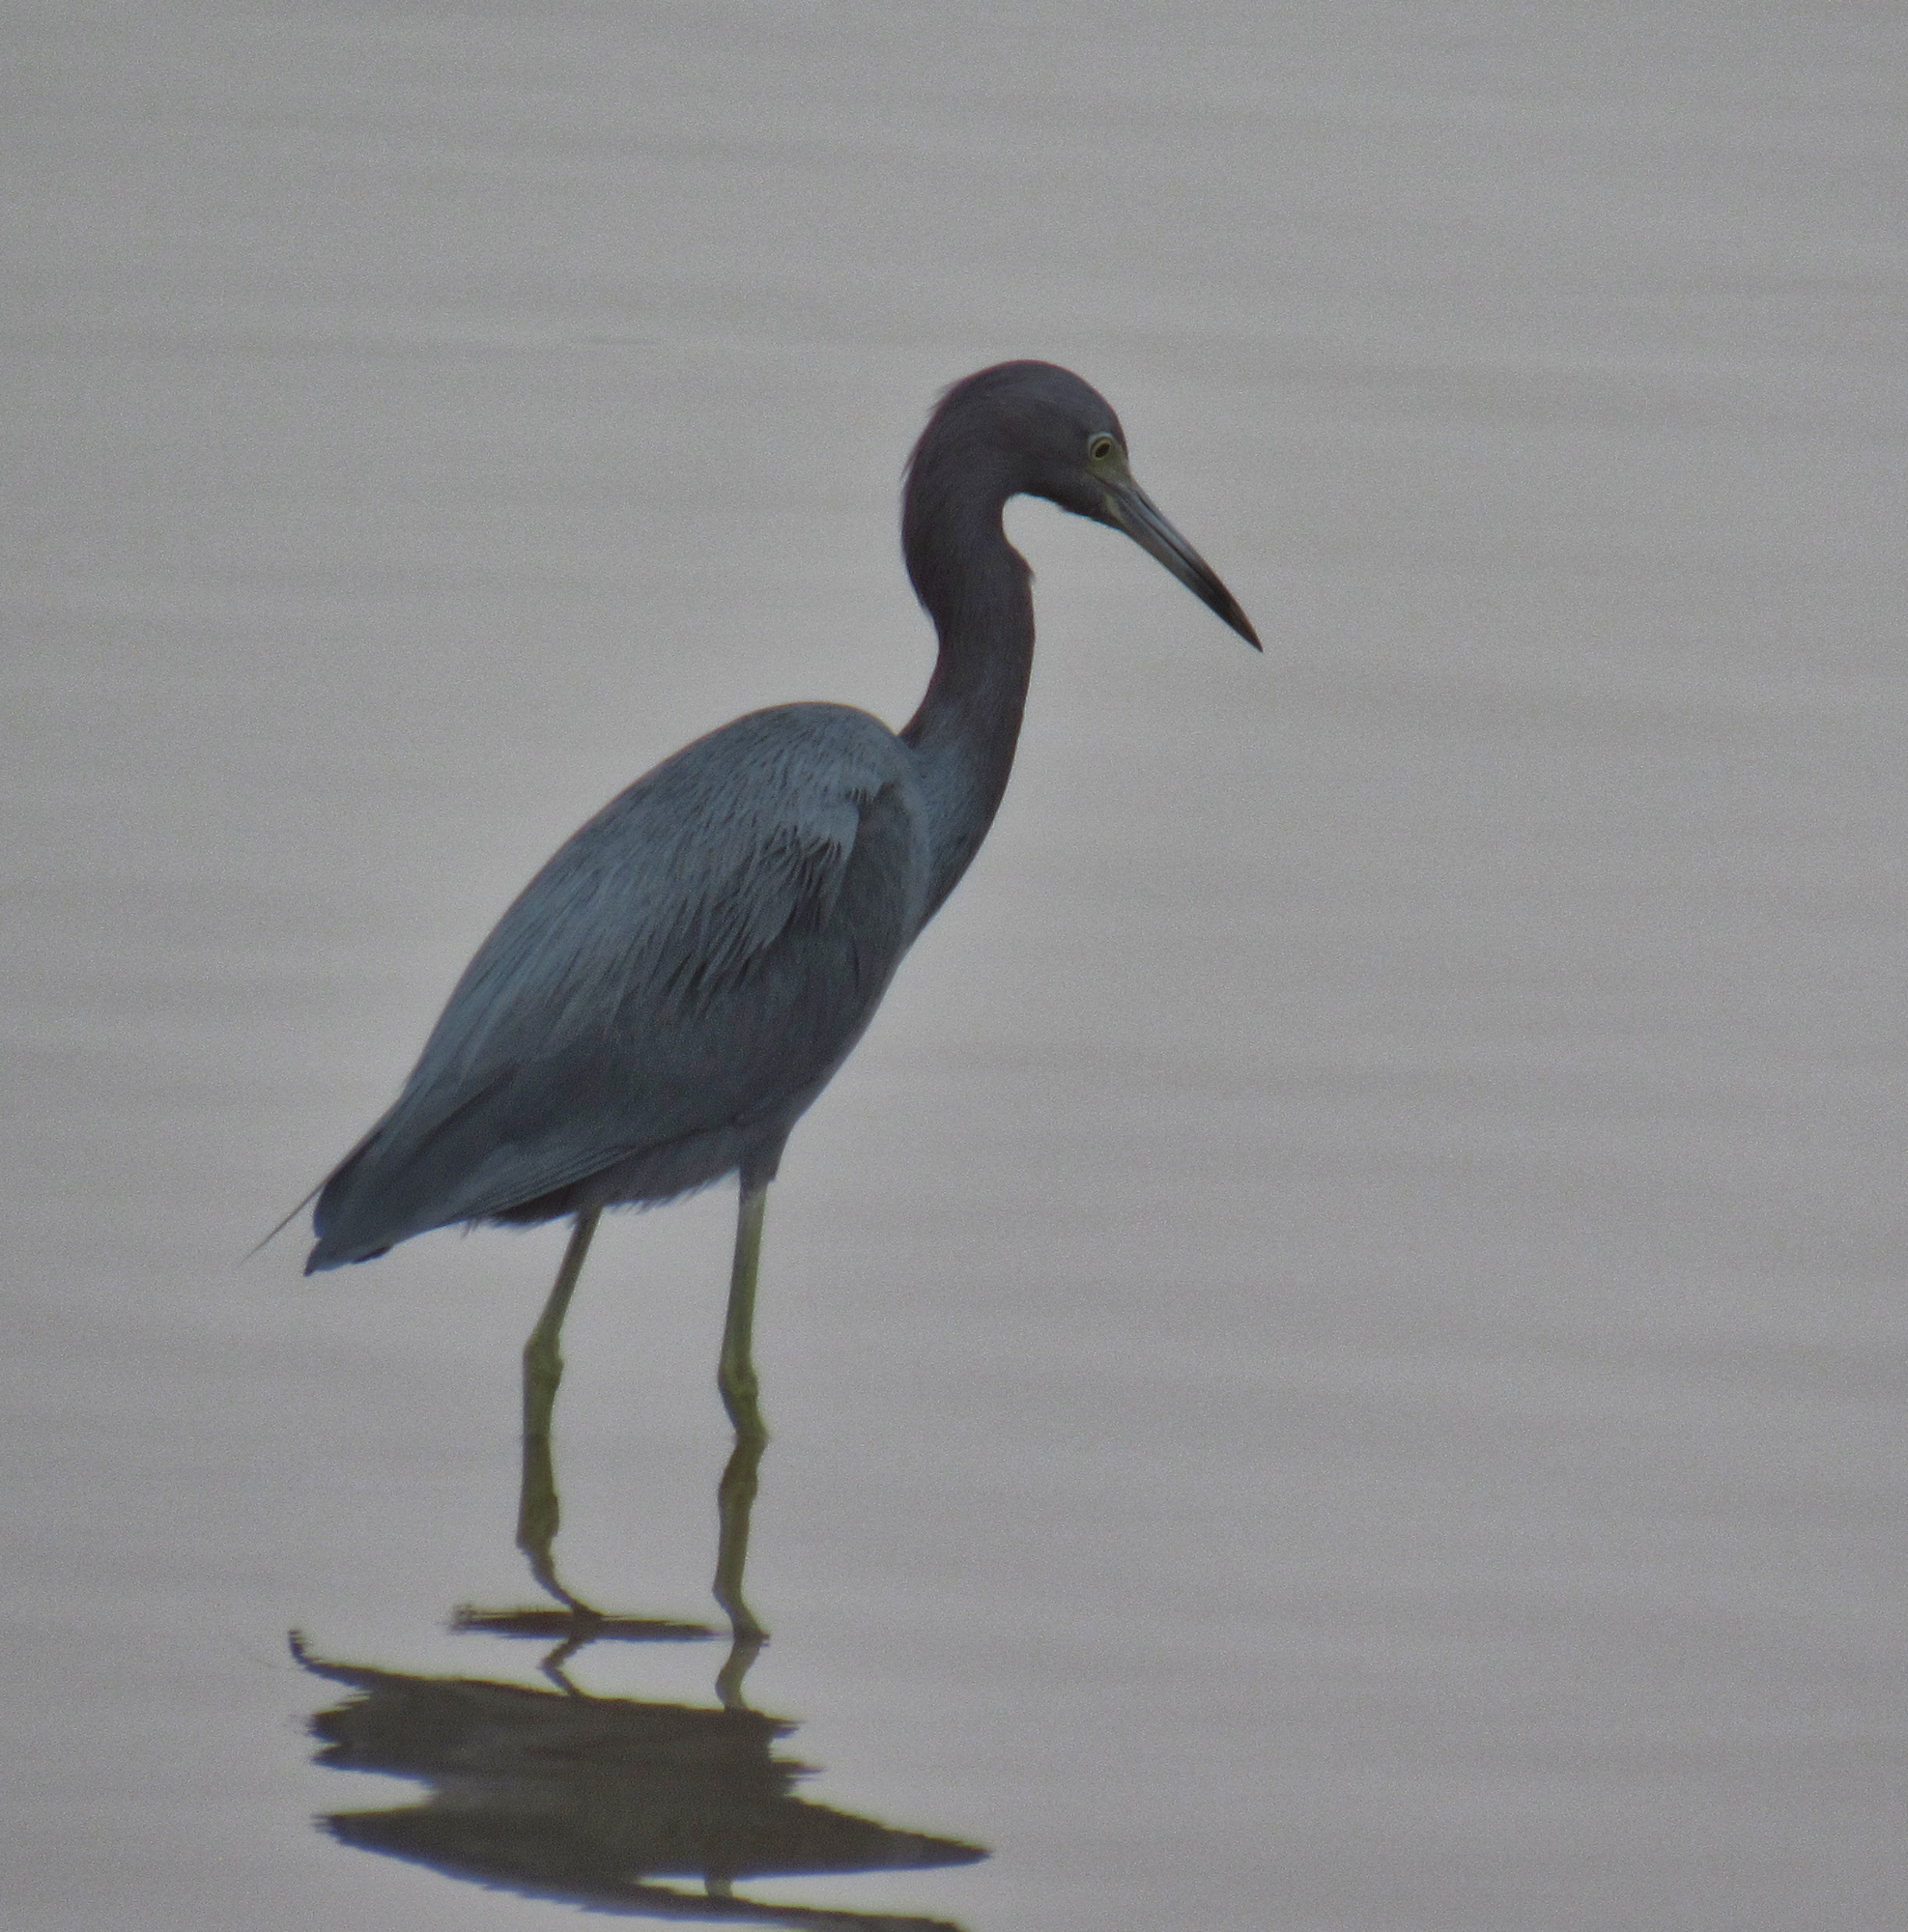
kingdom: Animalia
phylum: Chordata
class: Aves
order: Pelecaniformes
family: Ardeidae
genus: Egretta
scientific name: Egretta caerulea
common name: Little blue heron
